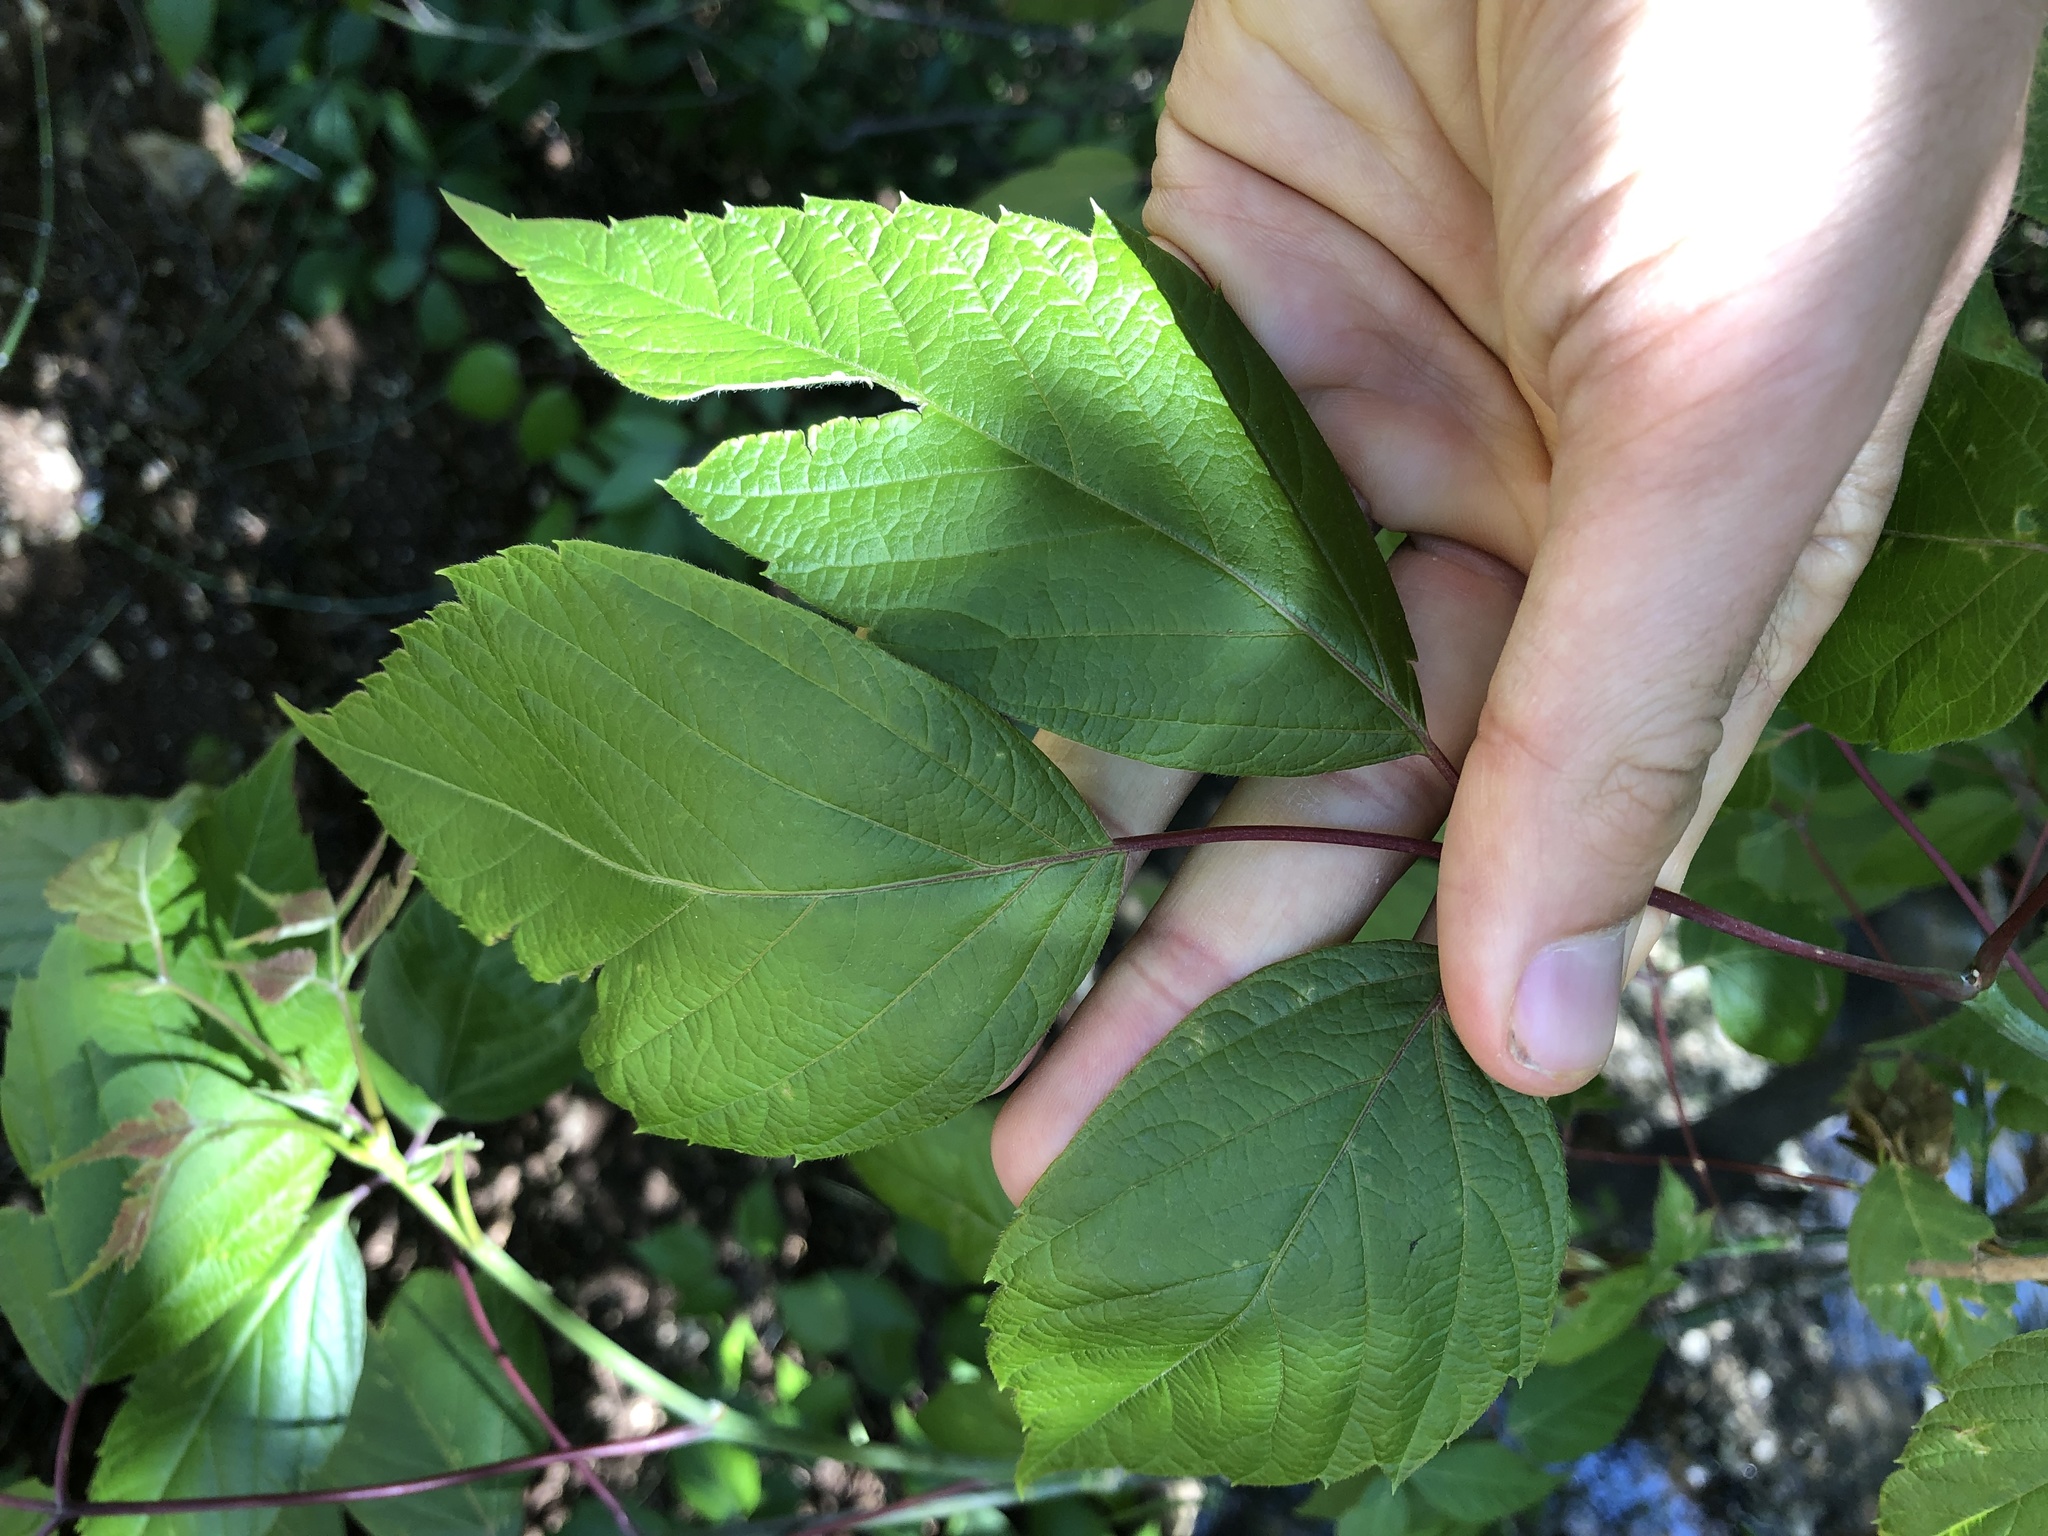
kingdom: Plantae
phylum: Tracheophyta
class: Magnoliopsida
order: Sapindales
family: Sapindaceae
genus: Acer
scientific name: Acer negundo
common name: Ashleaf maple
